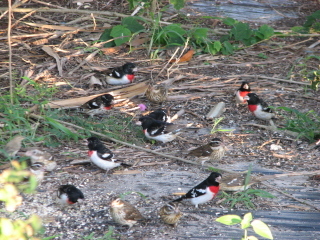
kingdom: Animalia
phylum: Chordata
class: Aves
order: Passeriformes
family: Cardinalidae
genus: Pheucticus
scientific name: Pheucticus ludovicianus
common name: Rose-breasted grosbeak
